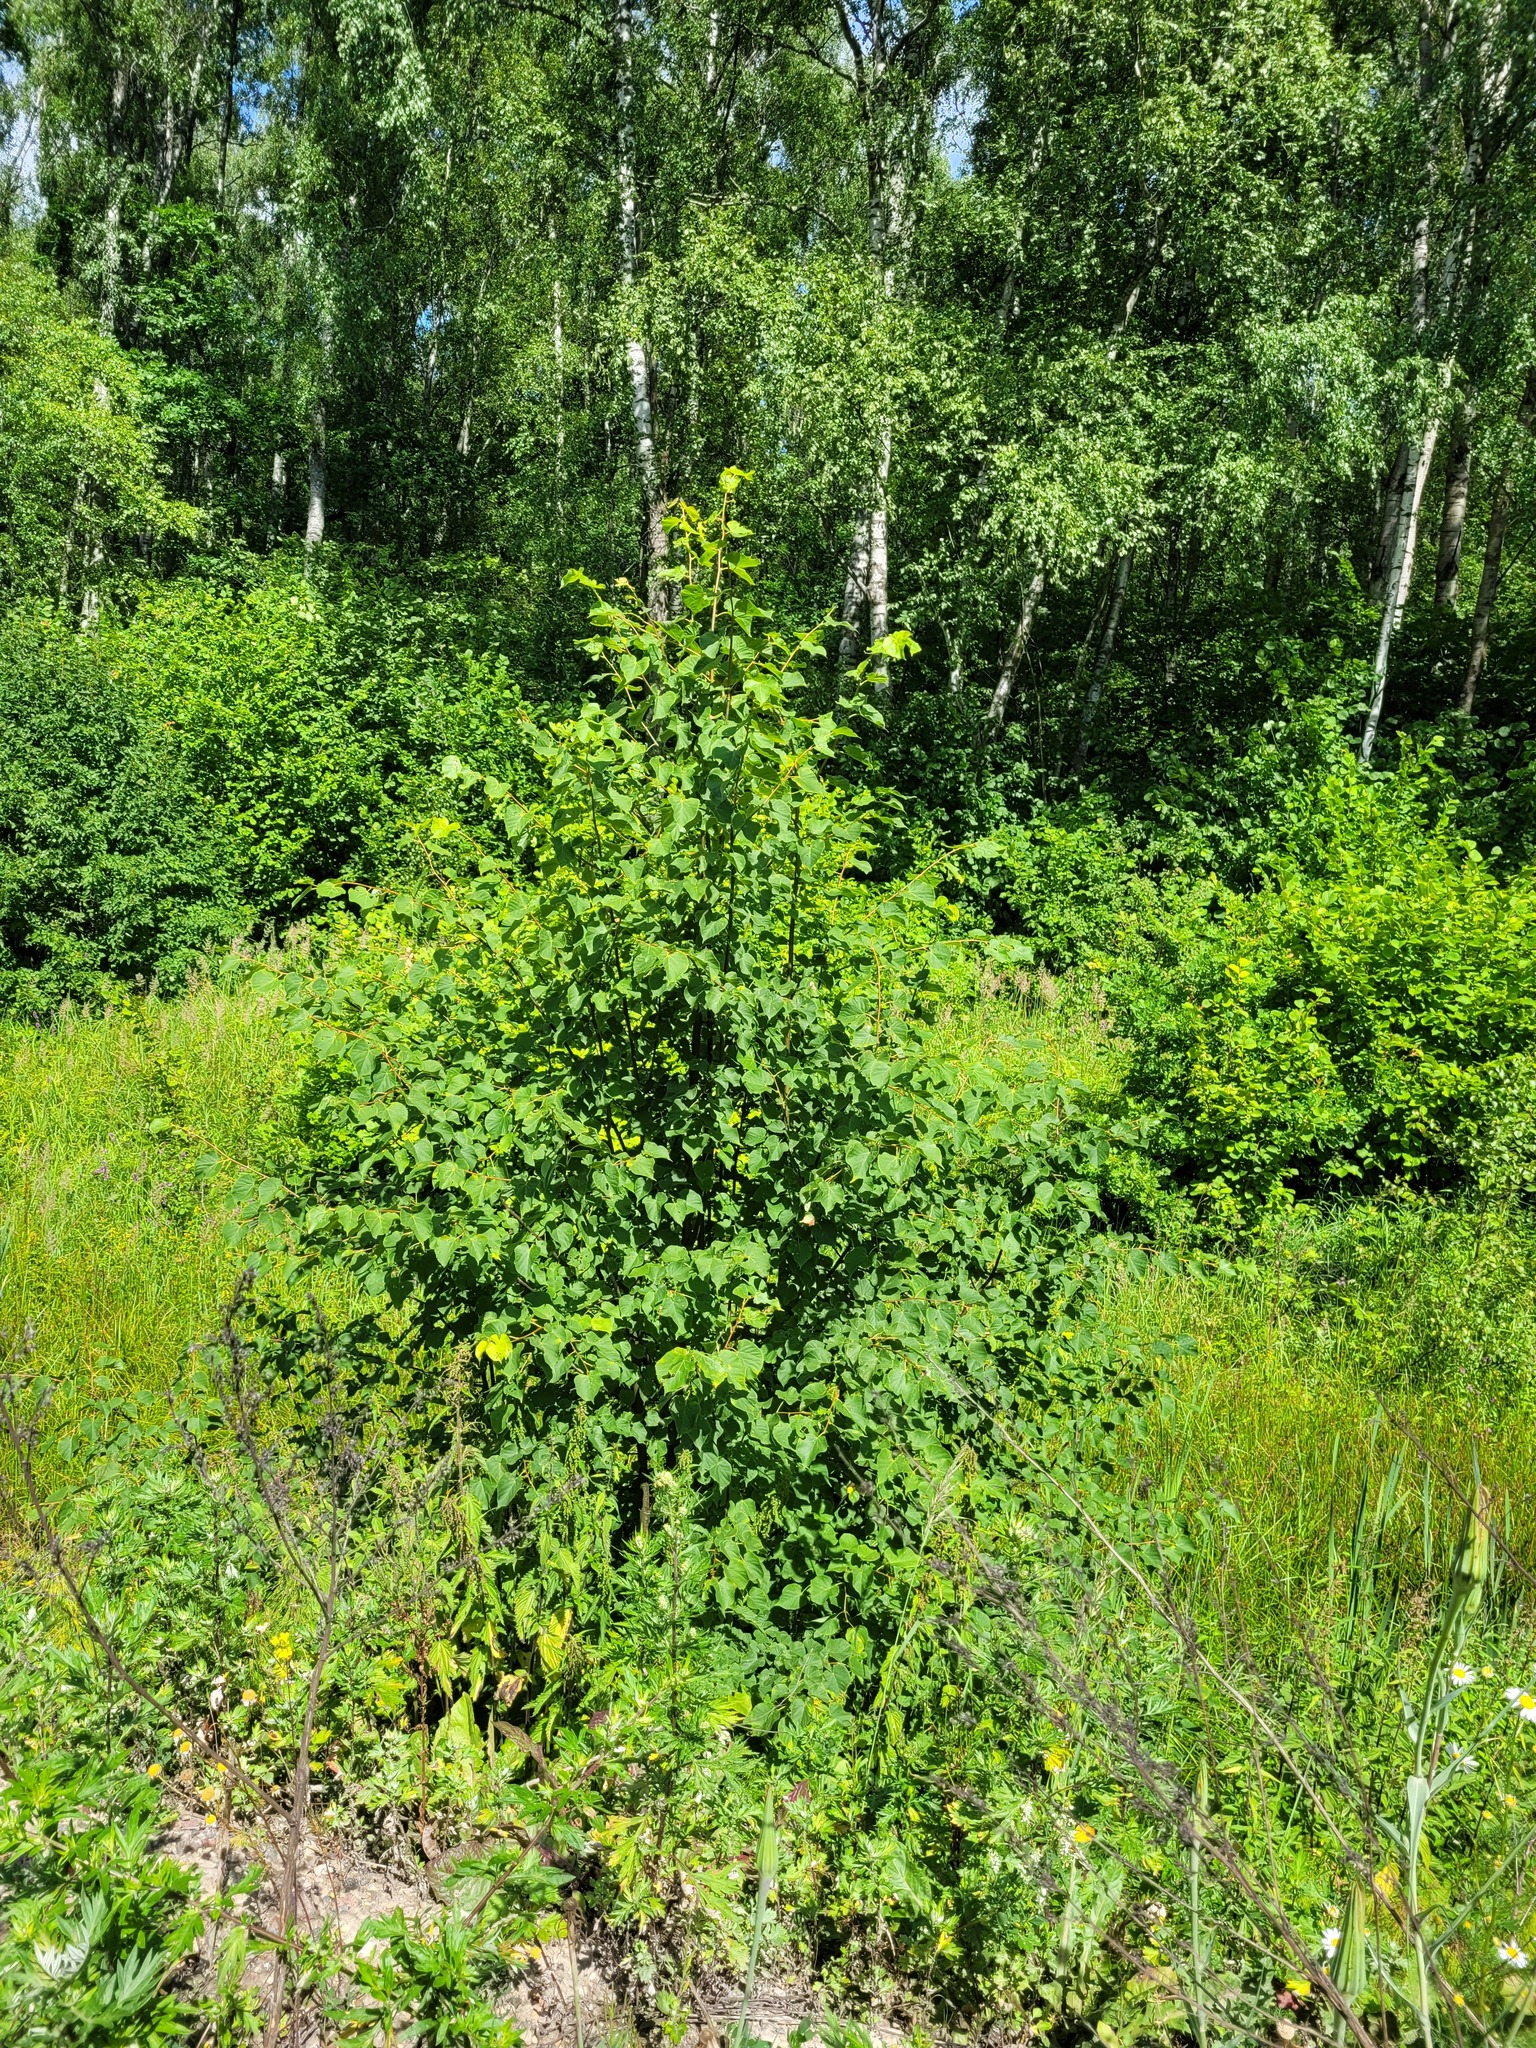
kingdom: Plantae
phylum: Tracheophyta
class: Magnoliopsida
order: Malvales
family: Malvaceae
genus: Tilia
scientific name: Tilia cordata
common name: Small-leaved lime
